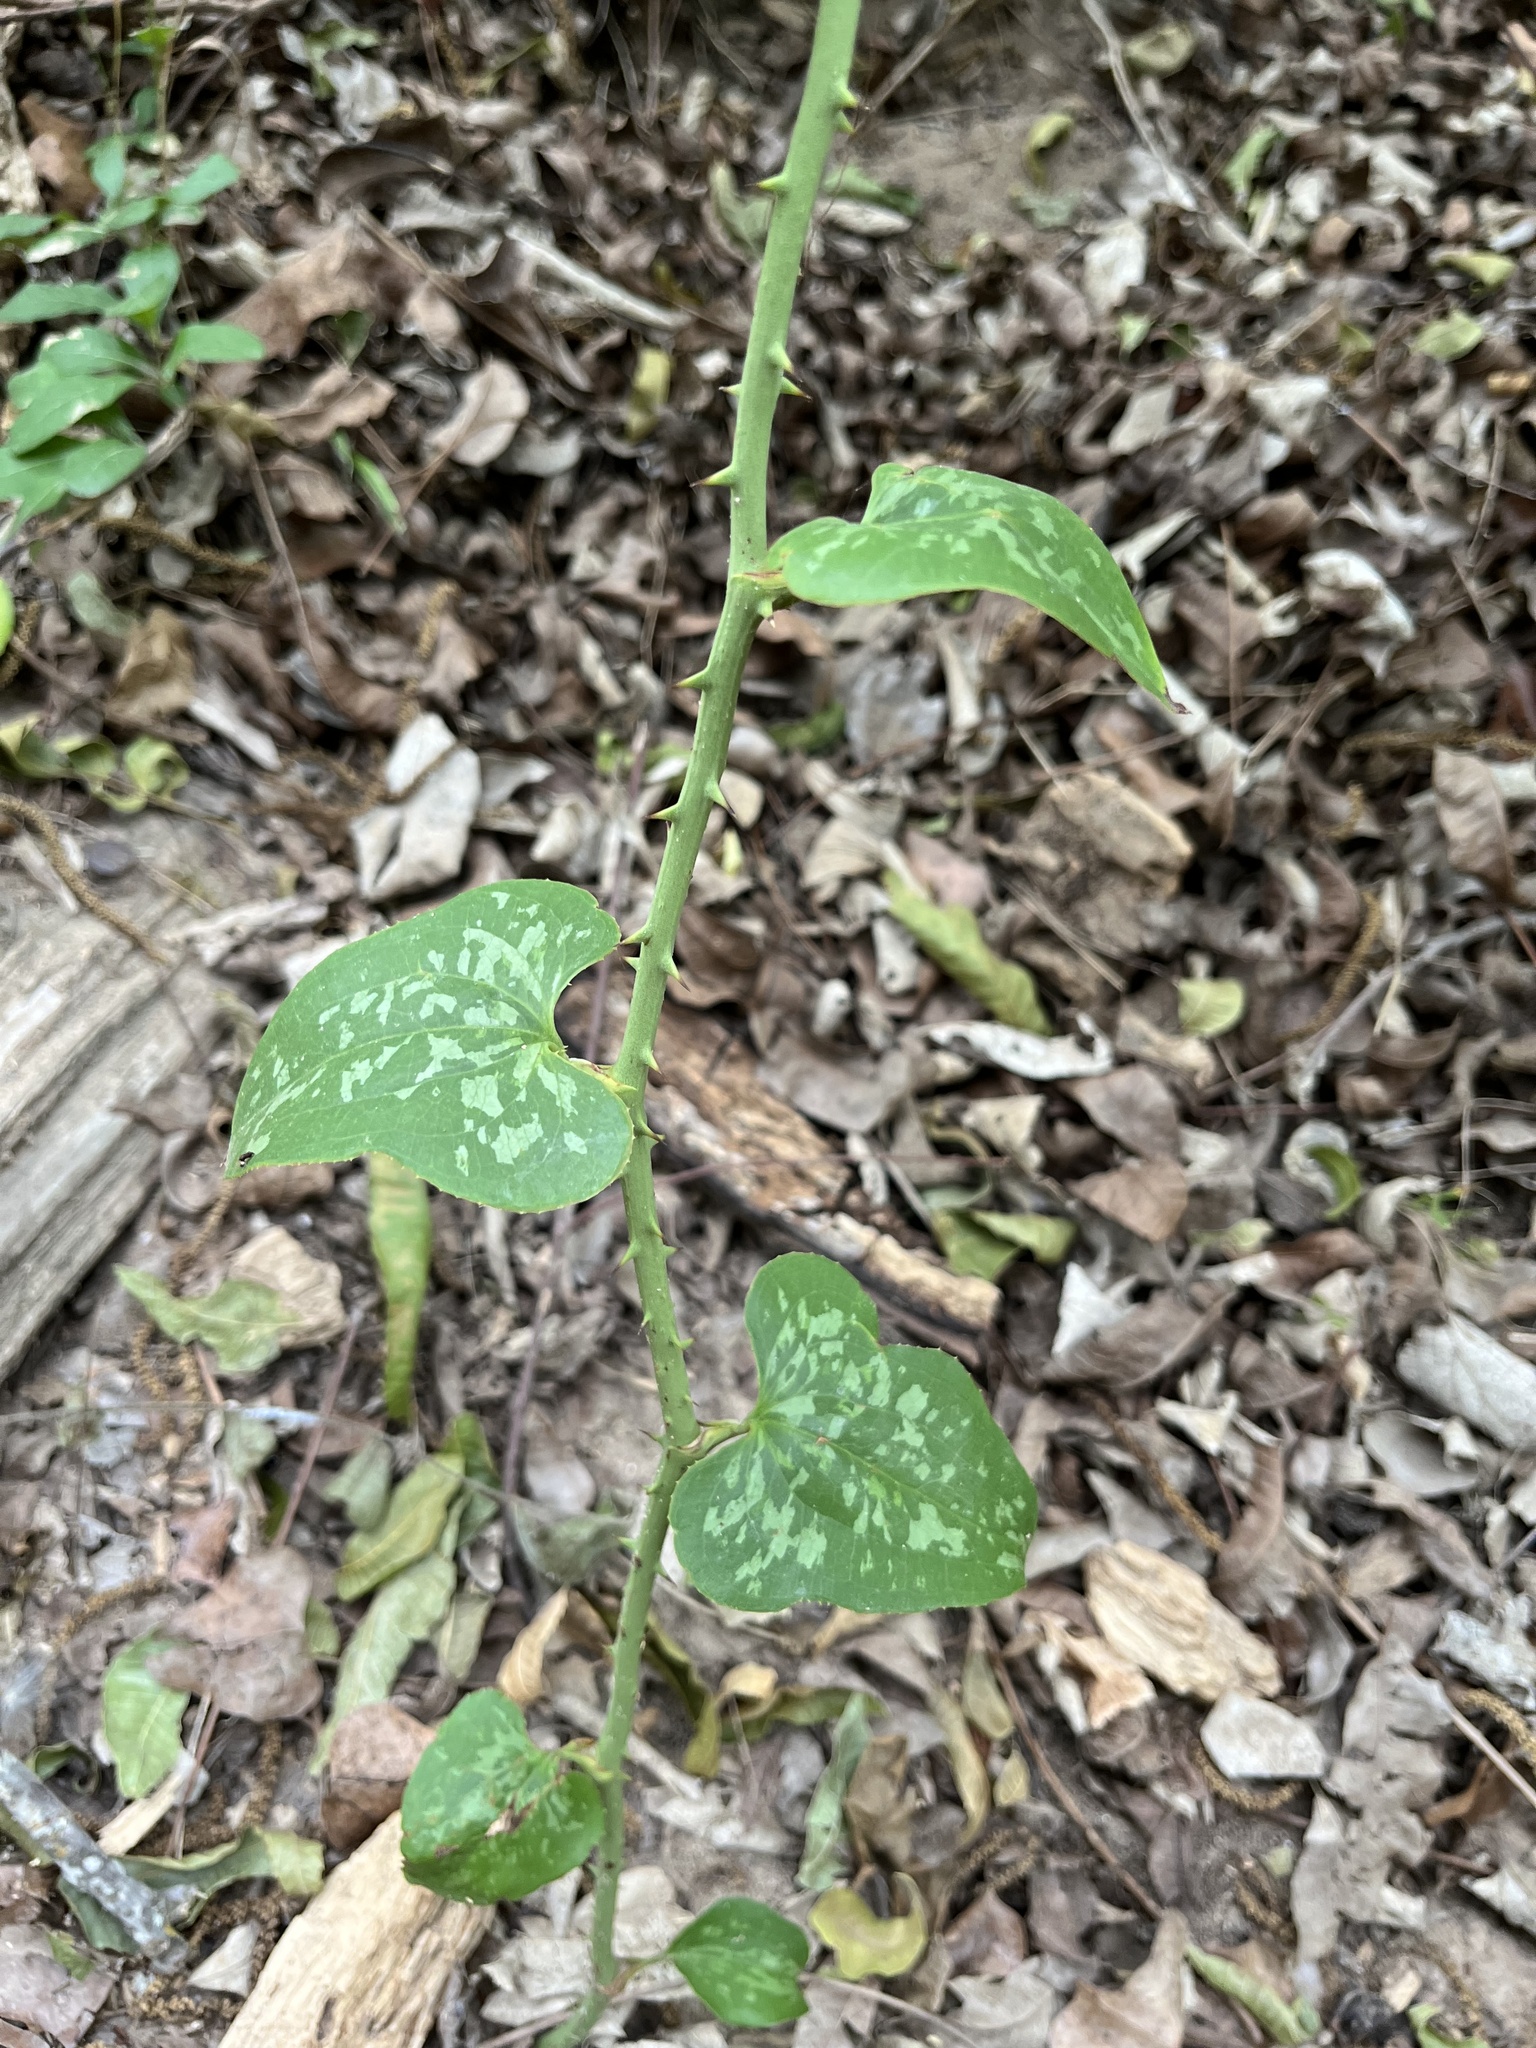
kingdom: Plantae
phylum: Tracheophyta
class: Liliopsida
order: Liliales
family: Smilacaceae
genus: Smilax
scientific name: Smilax bona-nox
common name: Catbrier
